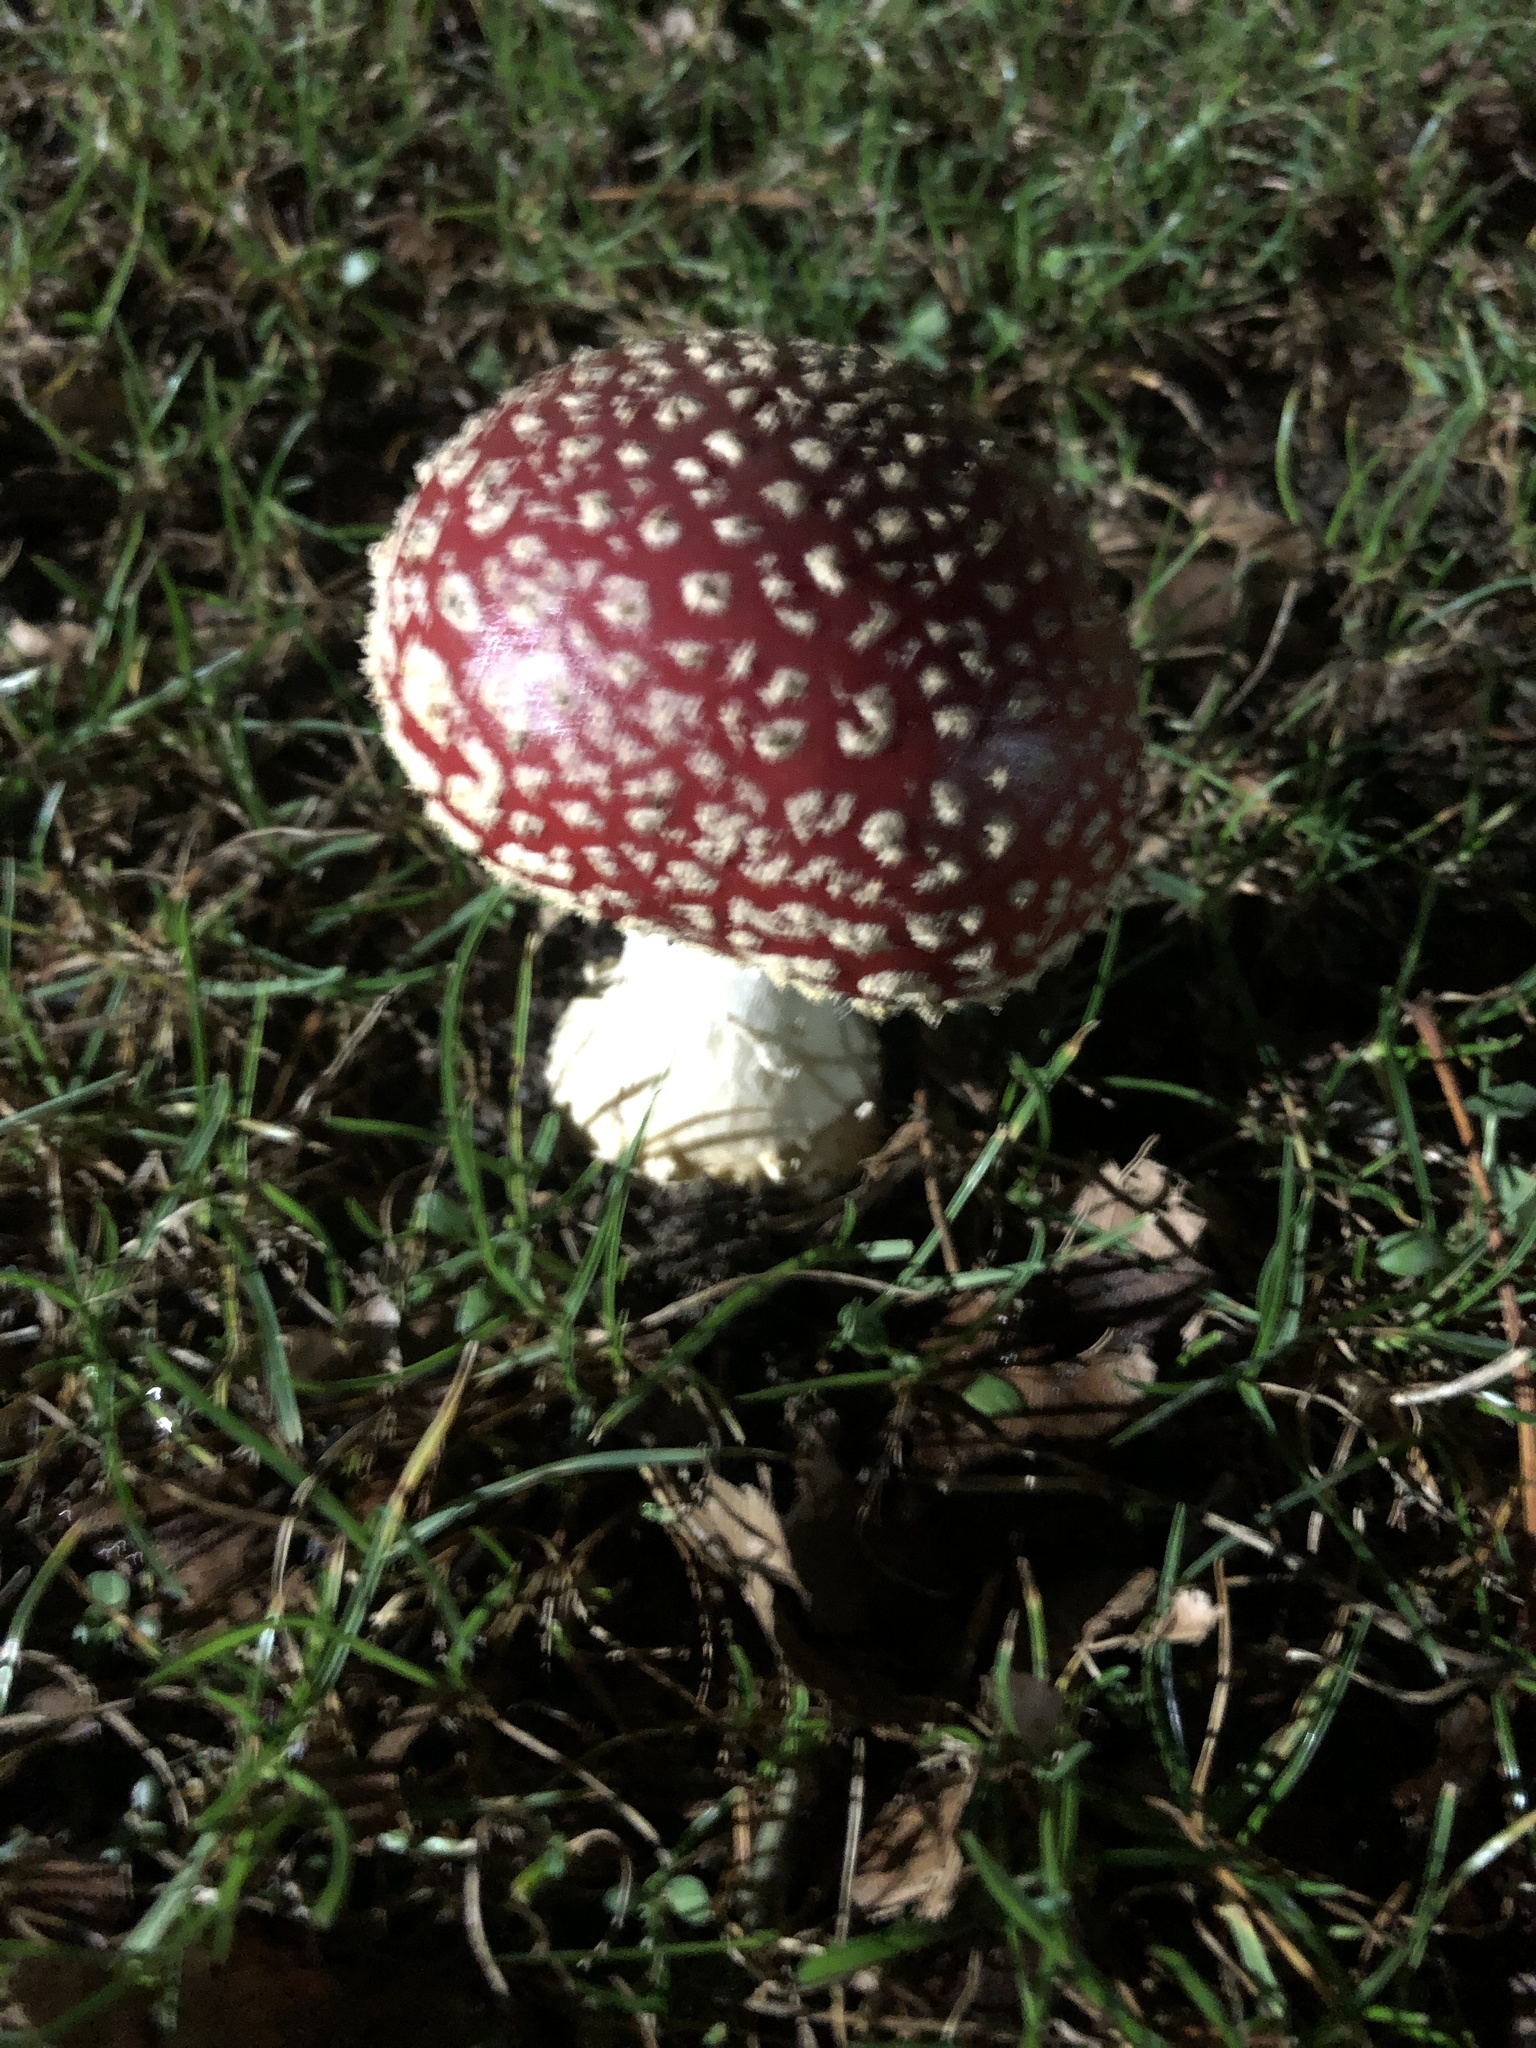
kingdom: Fungi
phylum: Basidiomycota
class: Agaricomycetes
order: Agaricales
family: Amanitaceae
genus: Amanita
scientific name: Amanita muscaria
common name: Fly agaric
